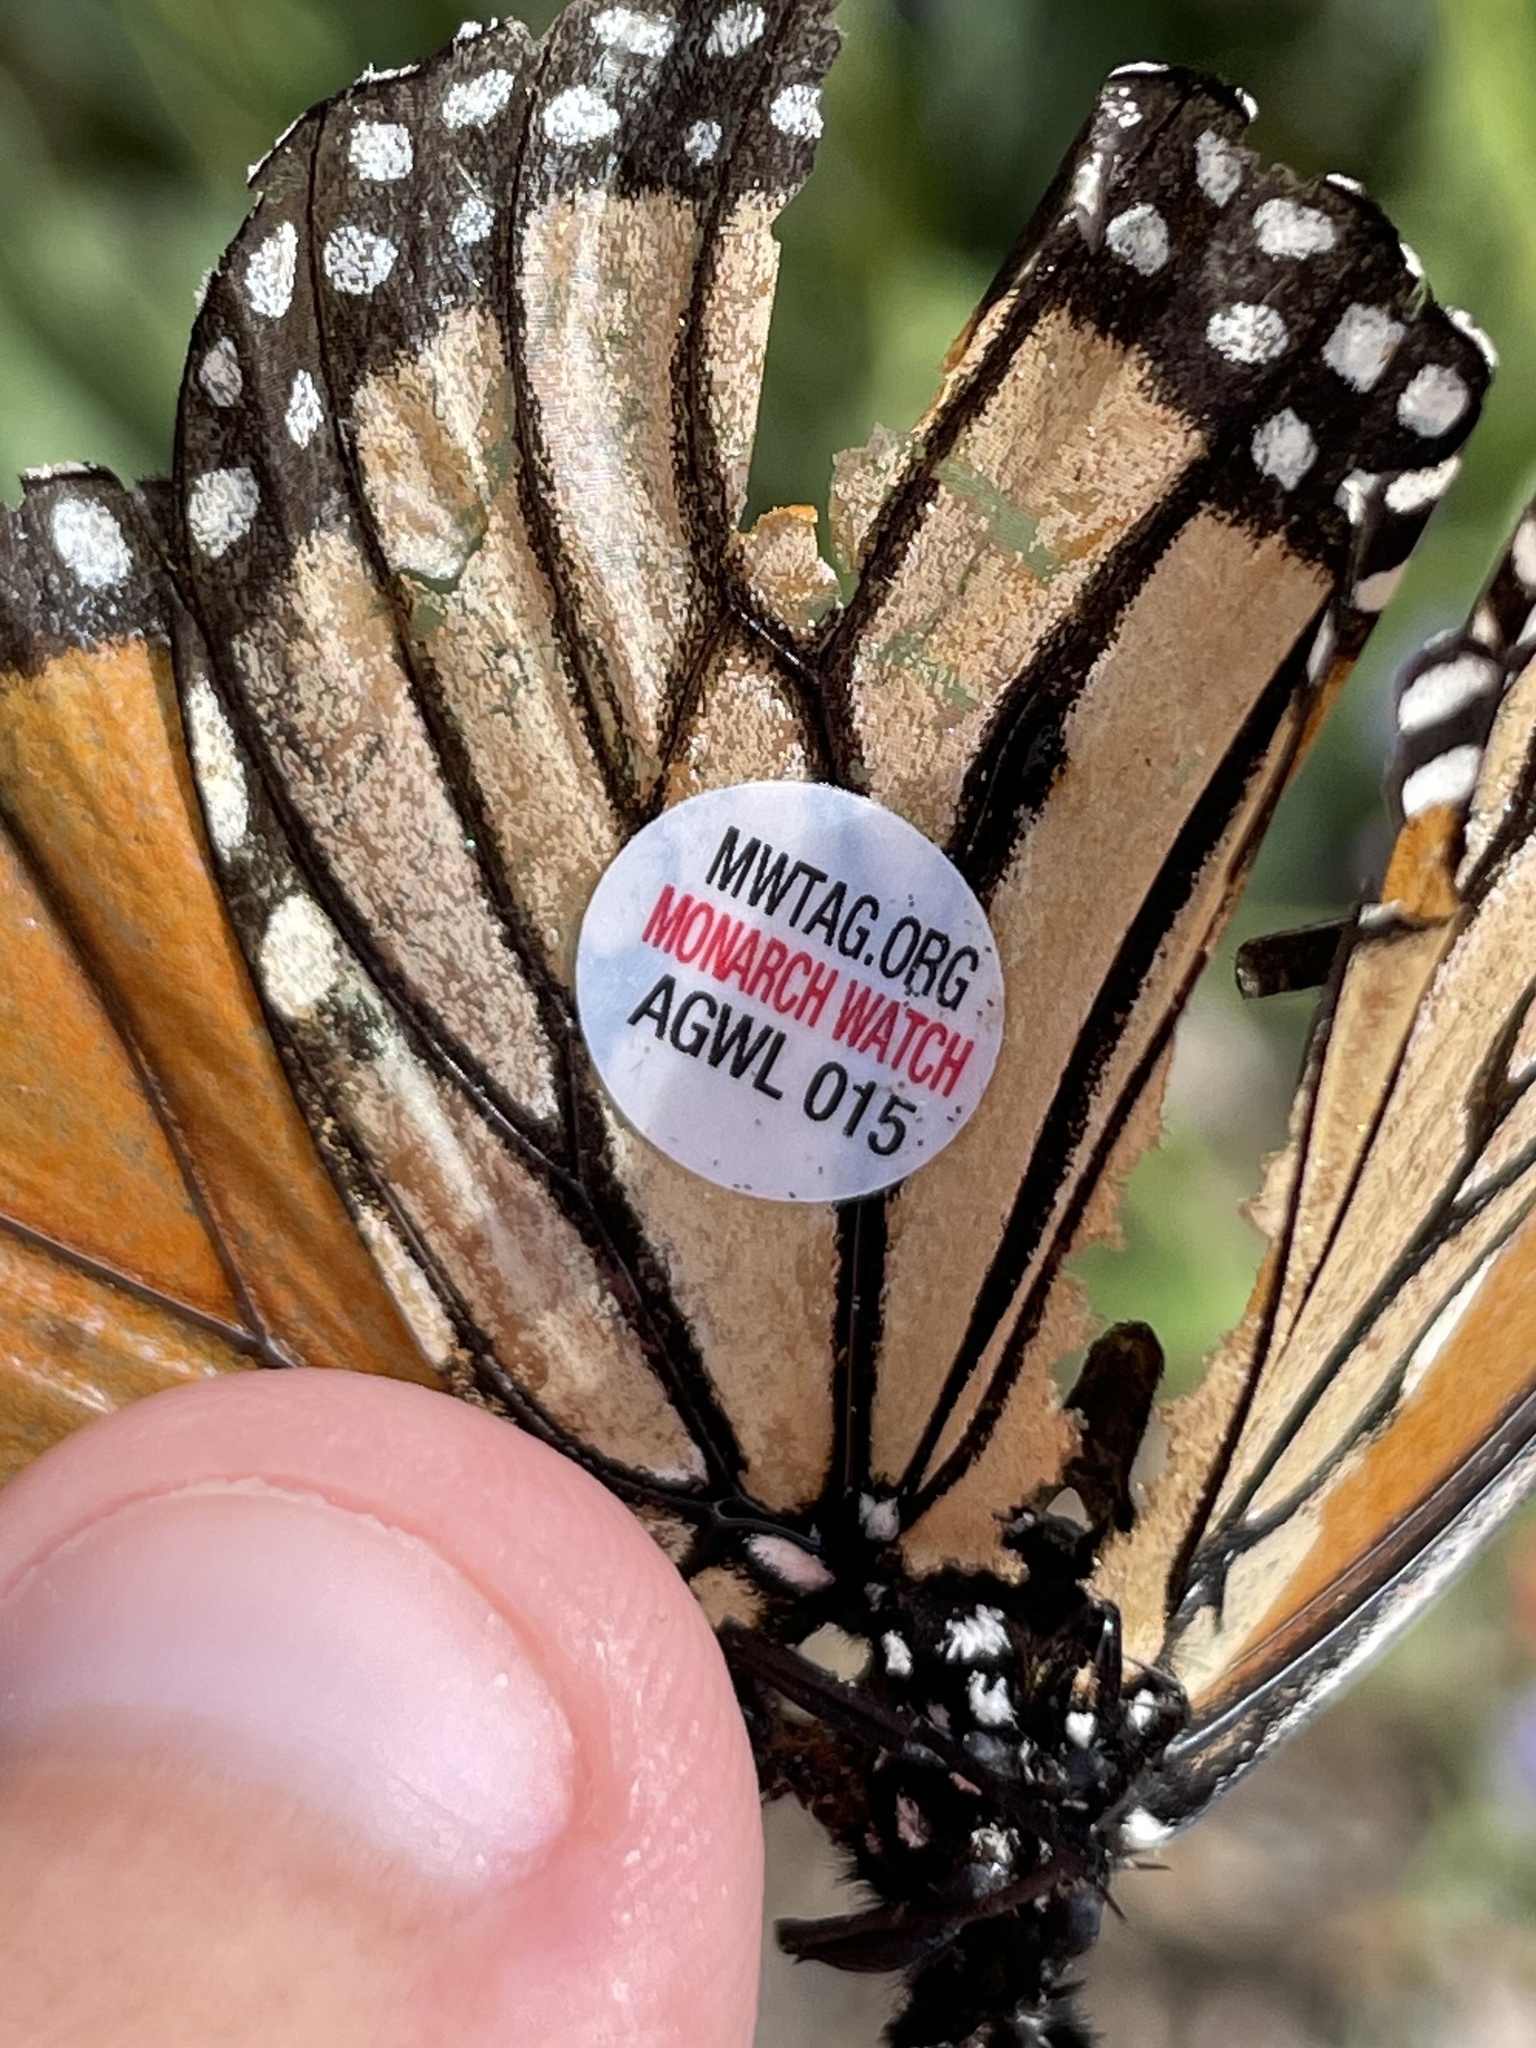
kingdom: Animalia
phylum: Arthropoda
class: Insecta
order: Lepidoptera
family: Nymphalidae
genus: Danaus
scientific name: Danaus plexippus
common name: Monarch
